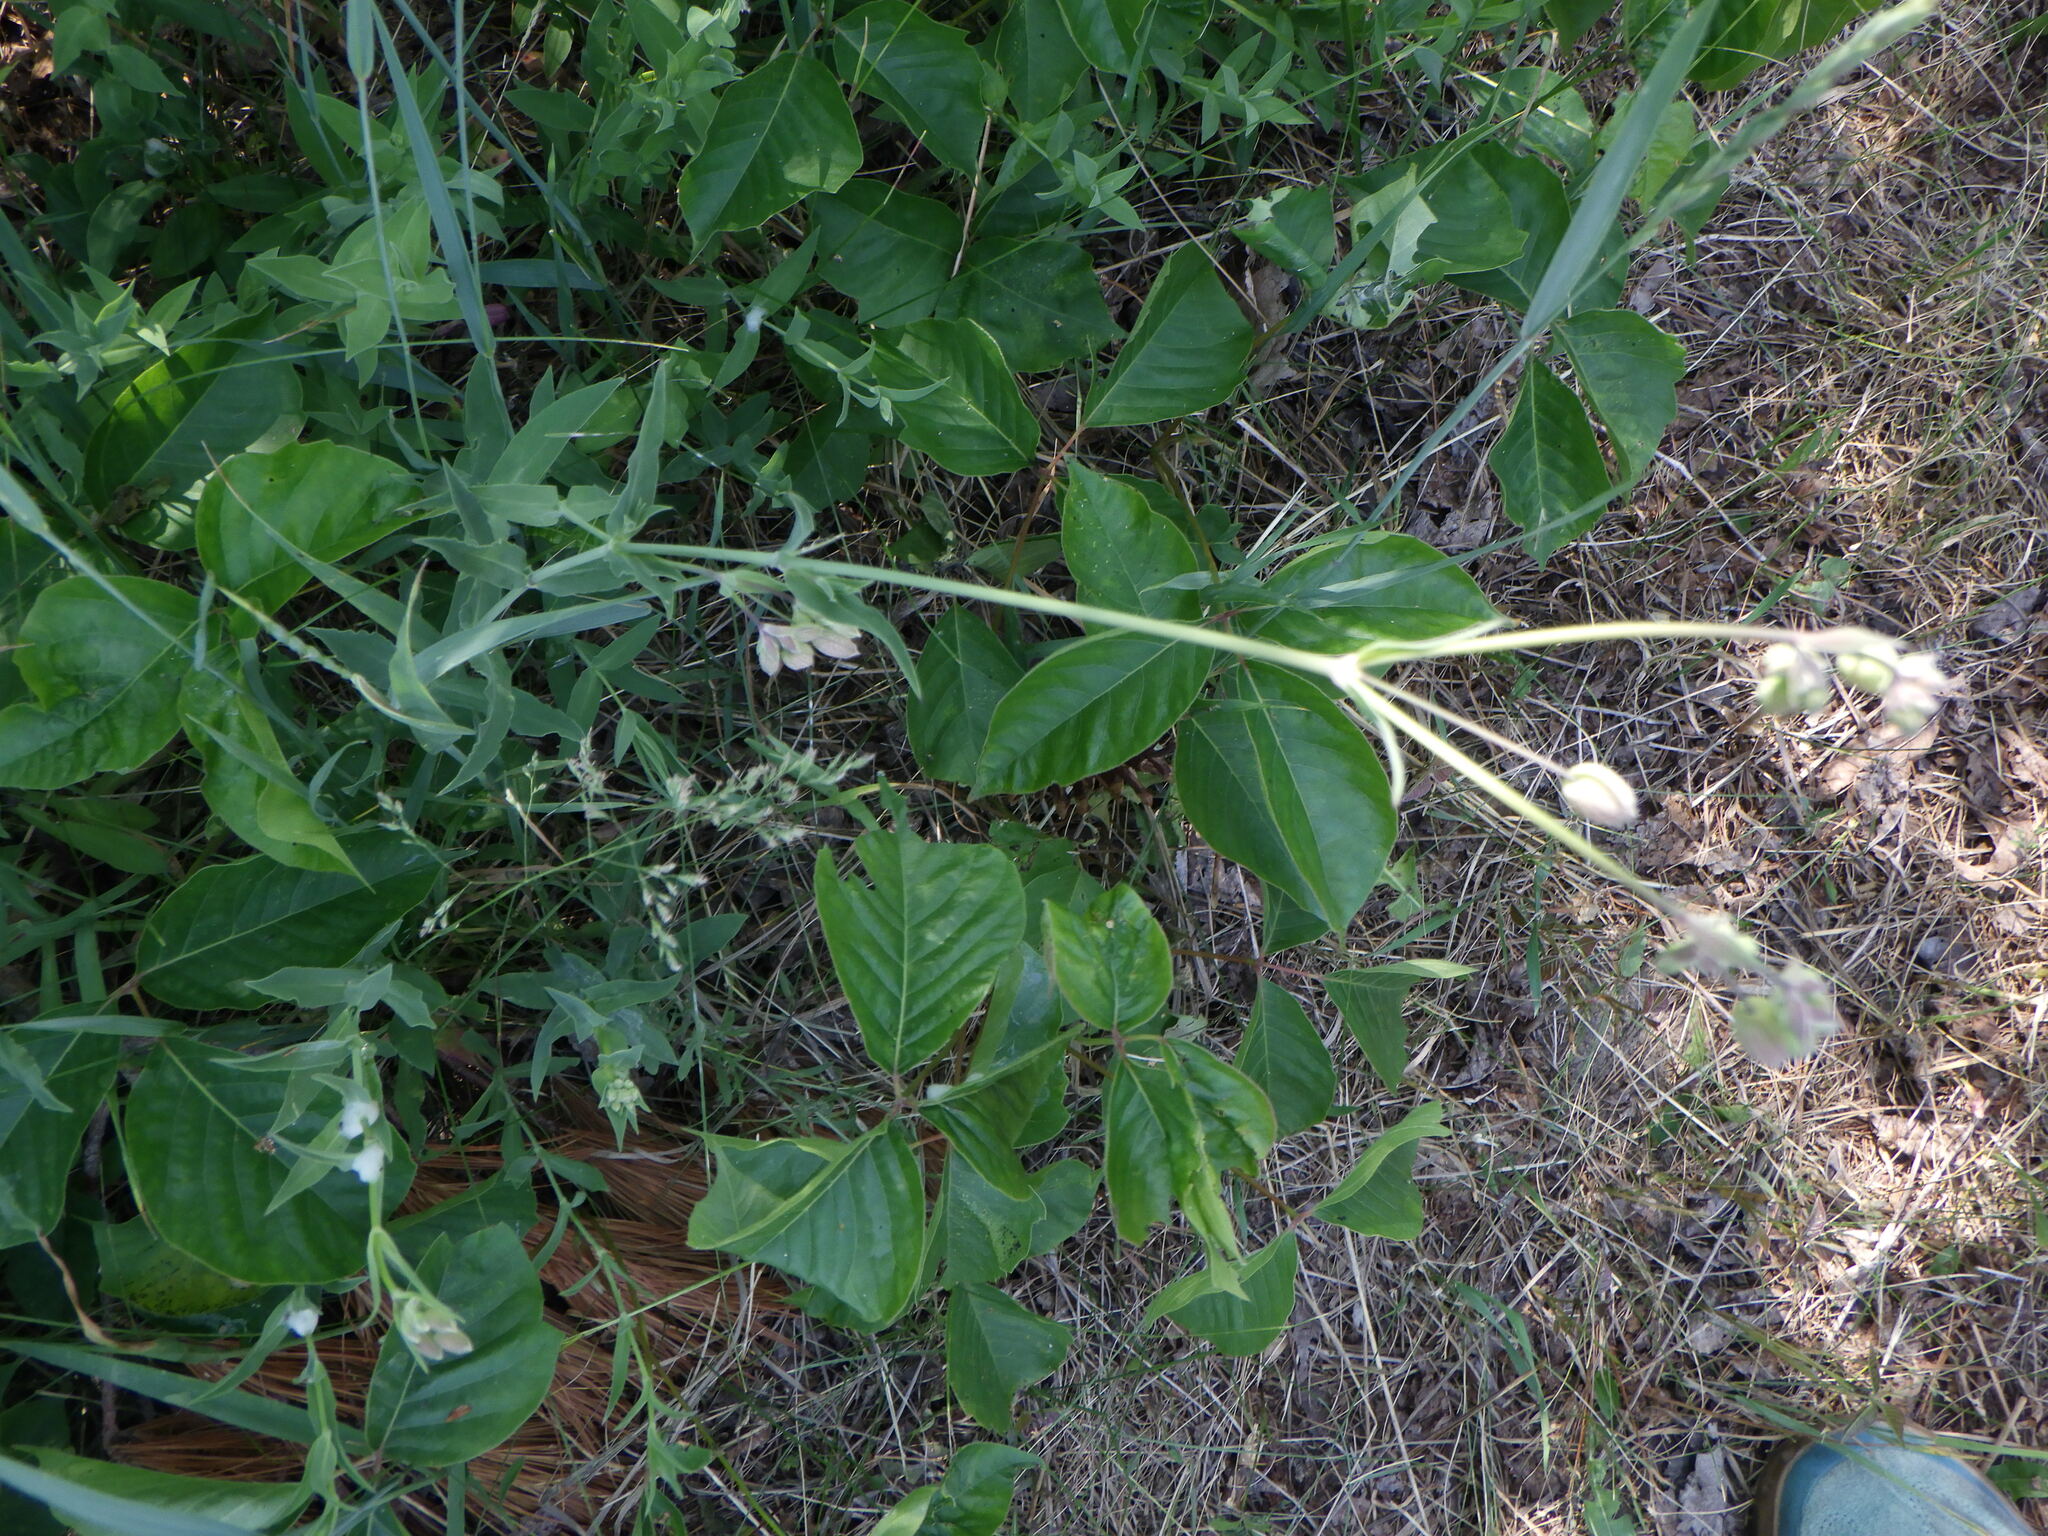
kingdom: Plantae
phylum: Tracheophyta
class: Magnoliopsida
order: Caryophyllales
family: Caryophyllaceae
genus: Silene
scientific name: Silene vulgaris
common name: Bladder campion
